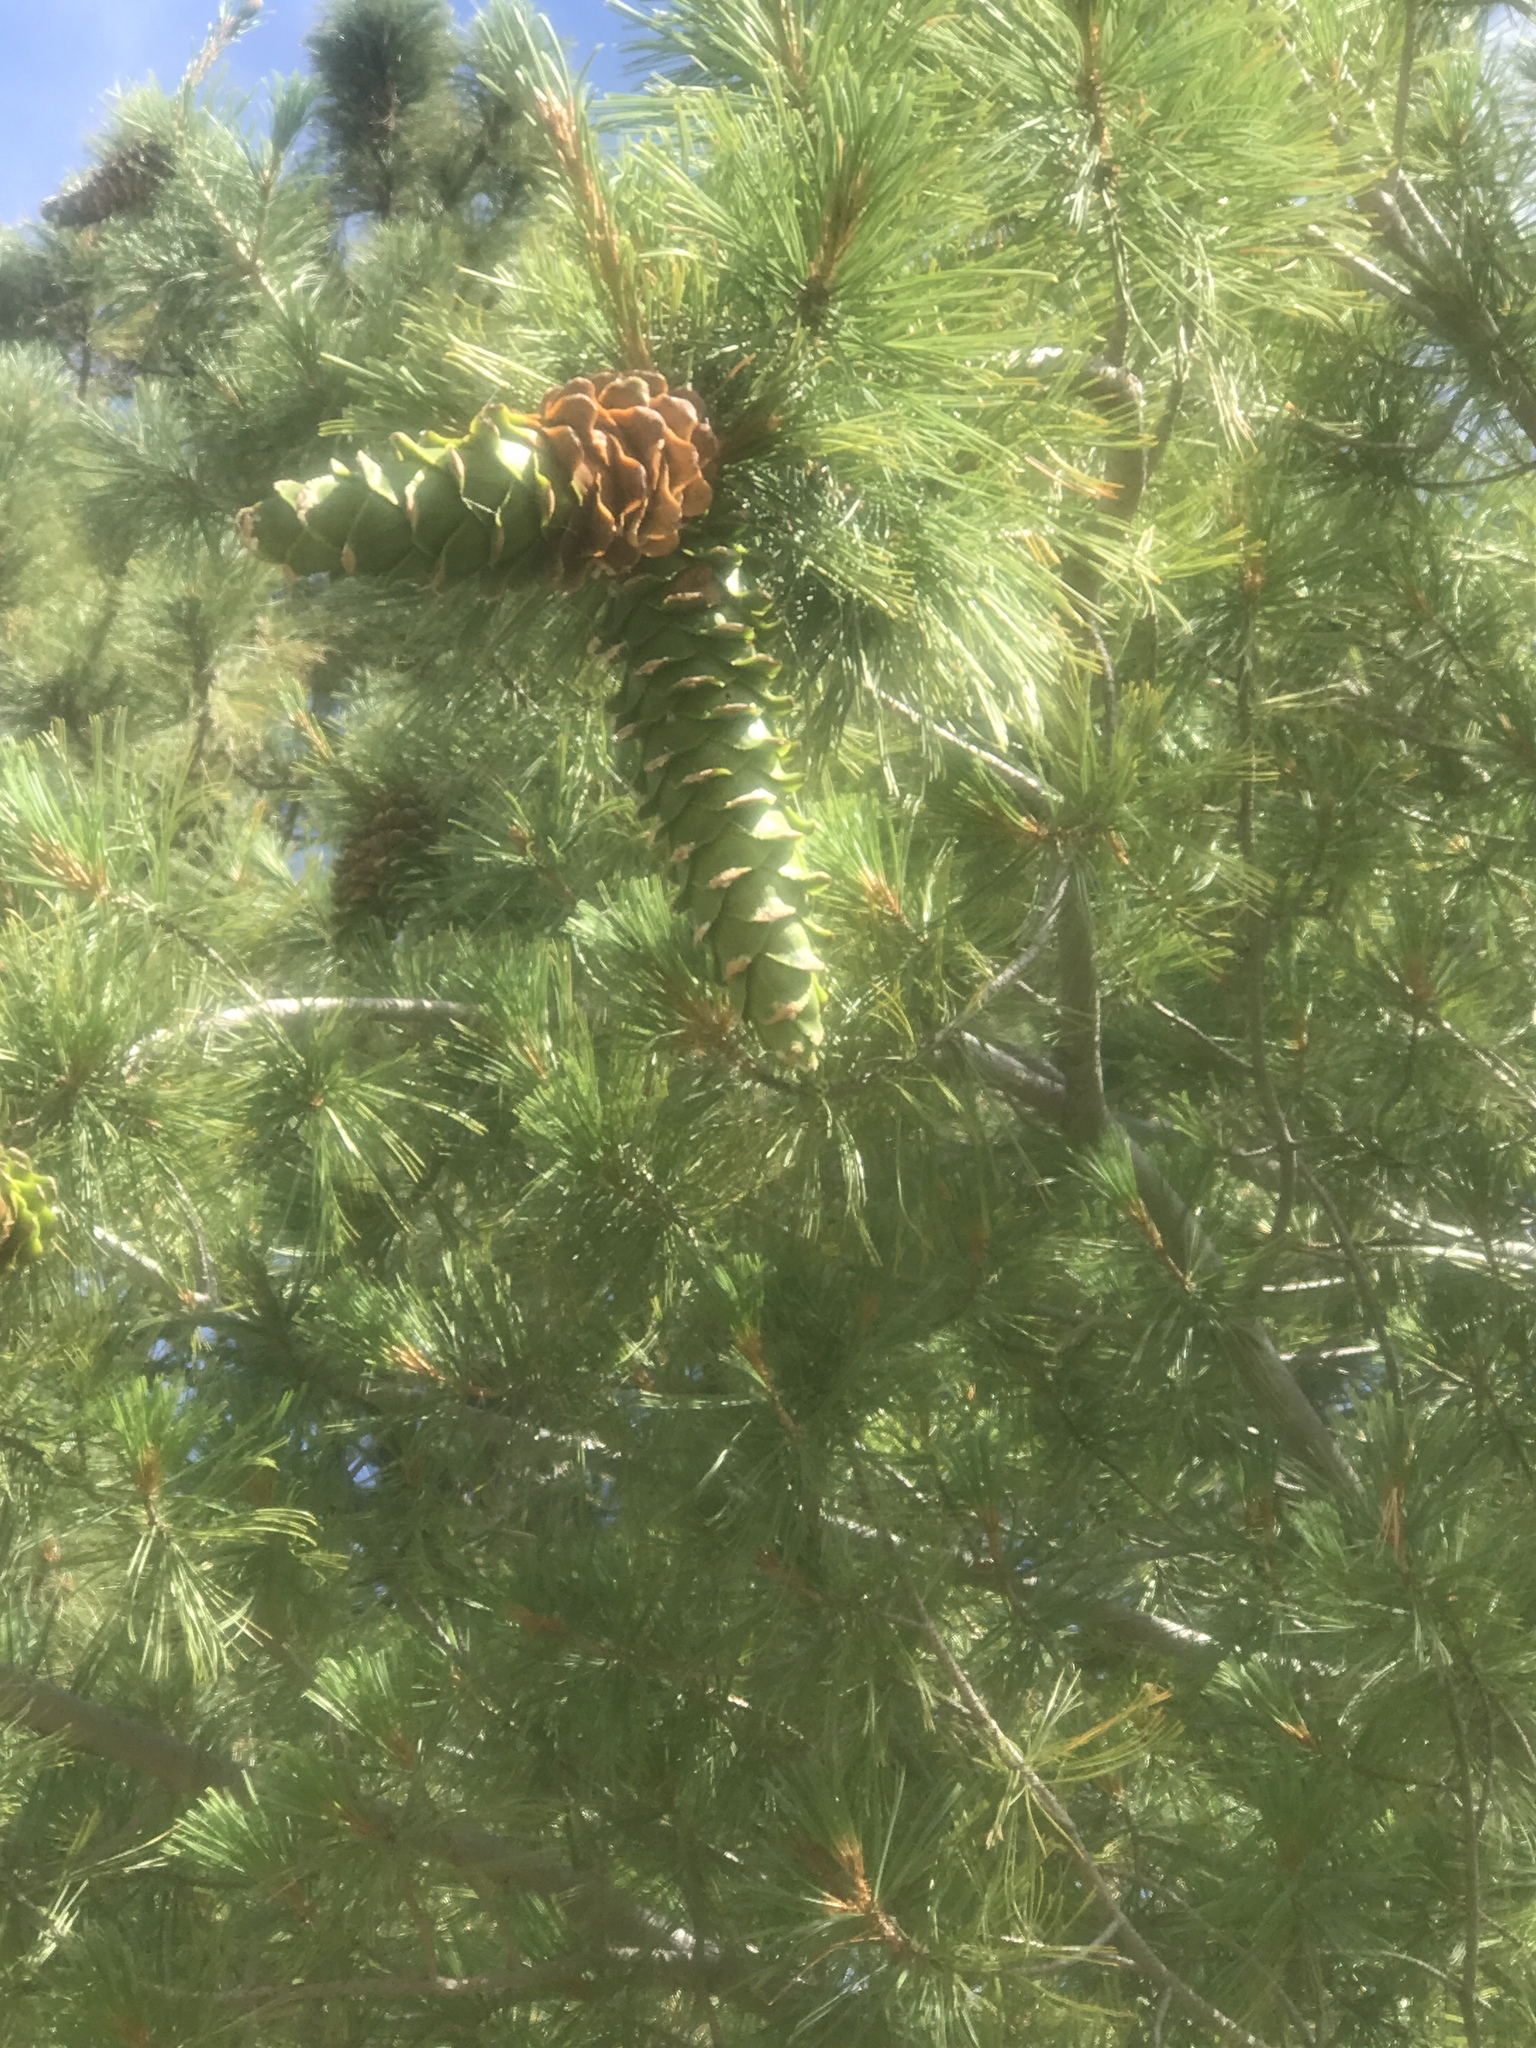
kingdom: Plantae
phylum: Tracheophyta
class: Pinopsida
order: Pinales
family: Pinaceae
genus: Pinus
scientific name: Pinus strobiformis
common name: Southwestern white pine
